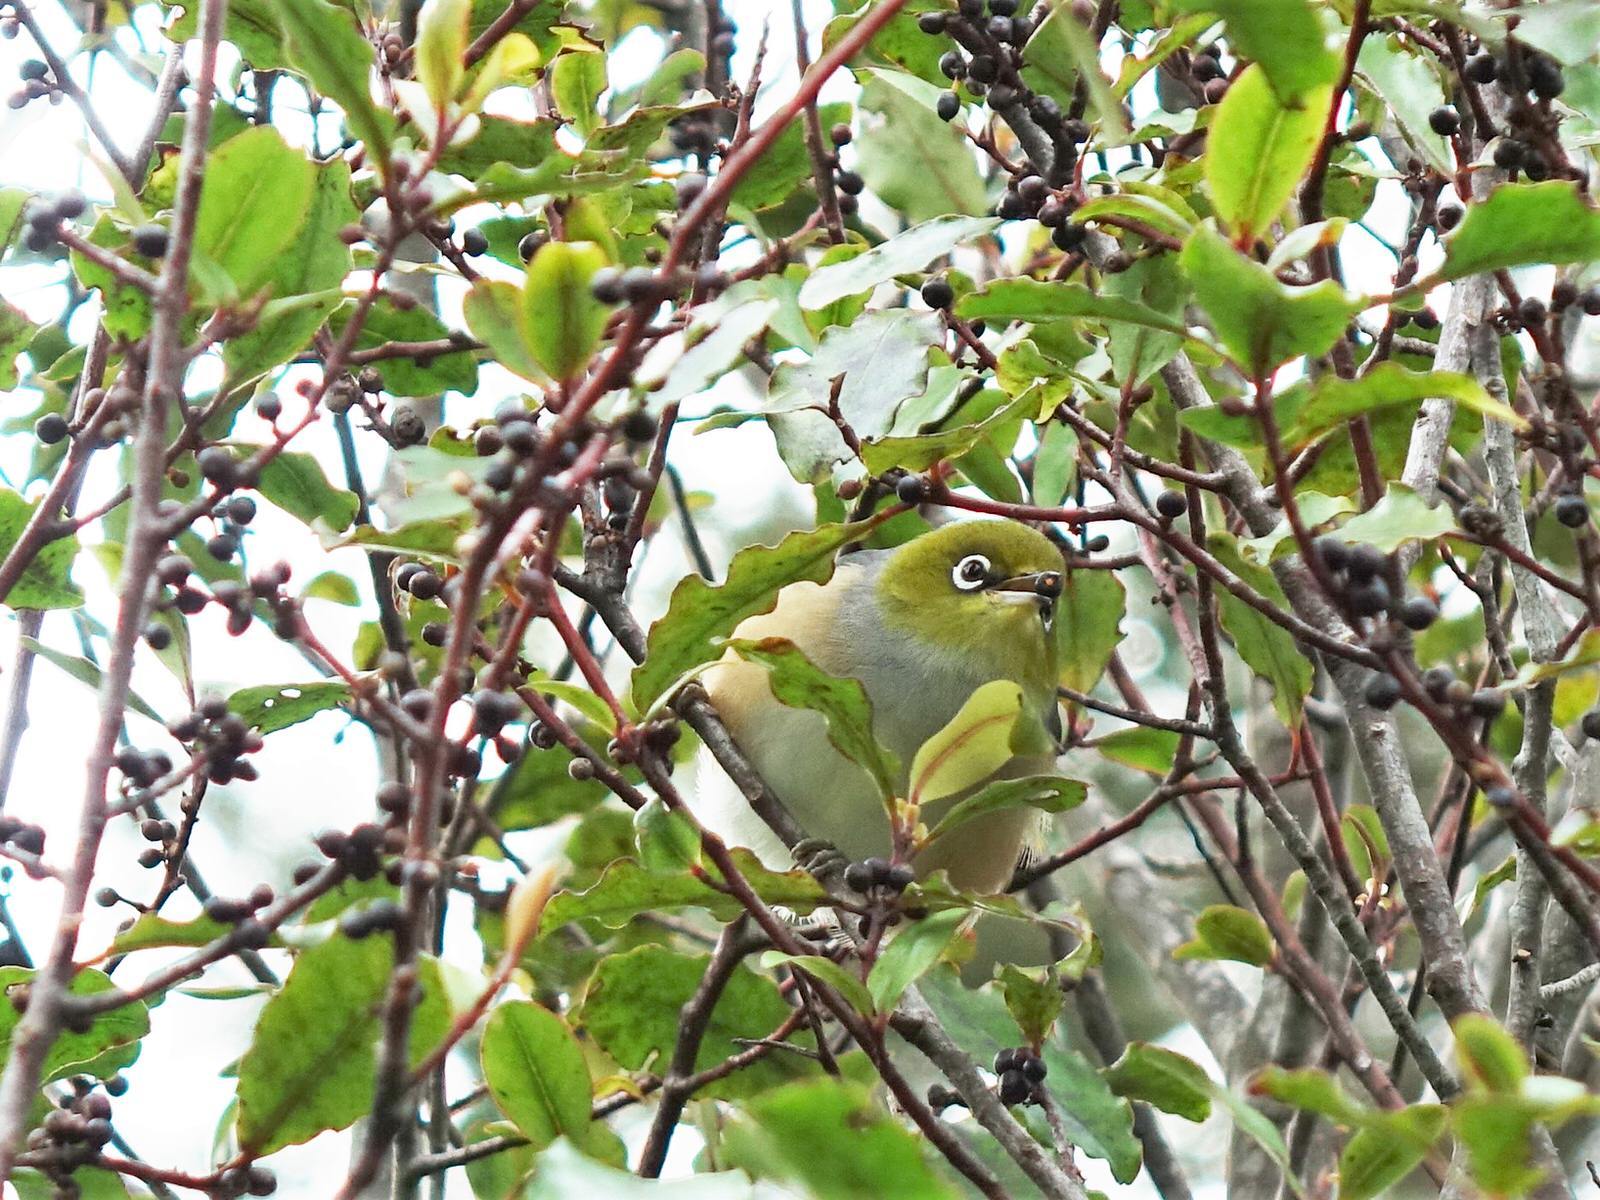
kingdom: Animalia
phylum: Chordata
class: Aves
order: Passeriformes
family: Zosteropidae
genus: Zosterops
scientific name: Zosterops lateralis
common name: Silvereye
